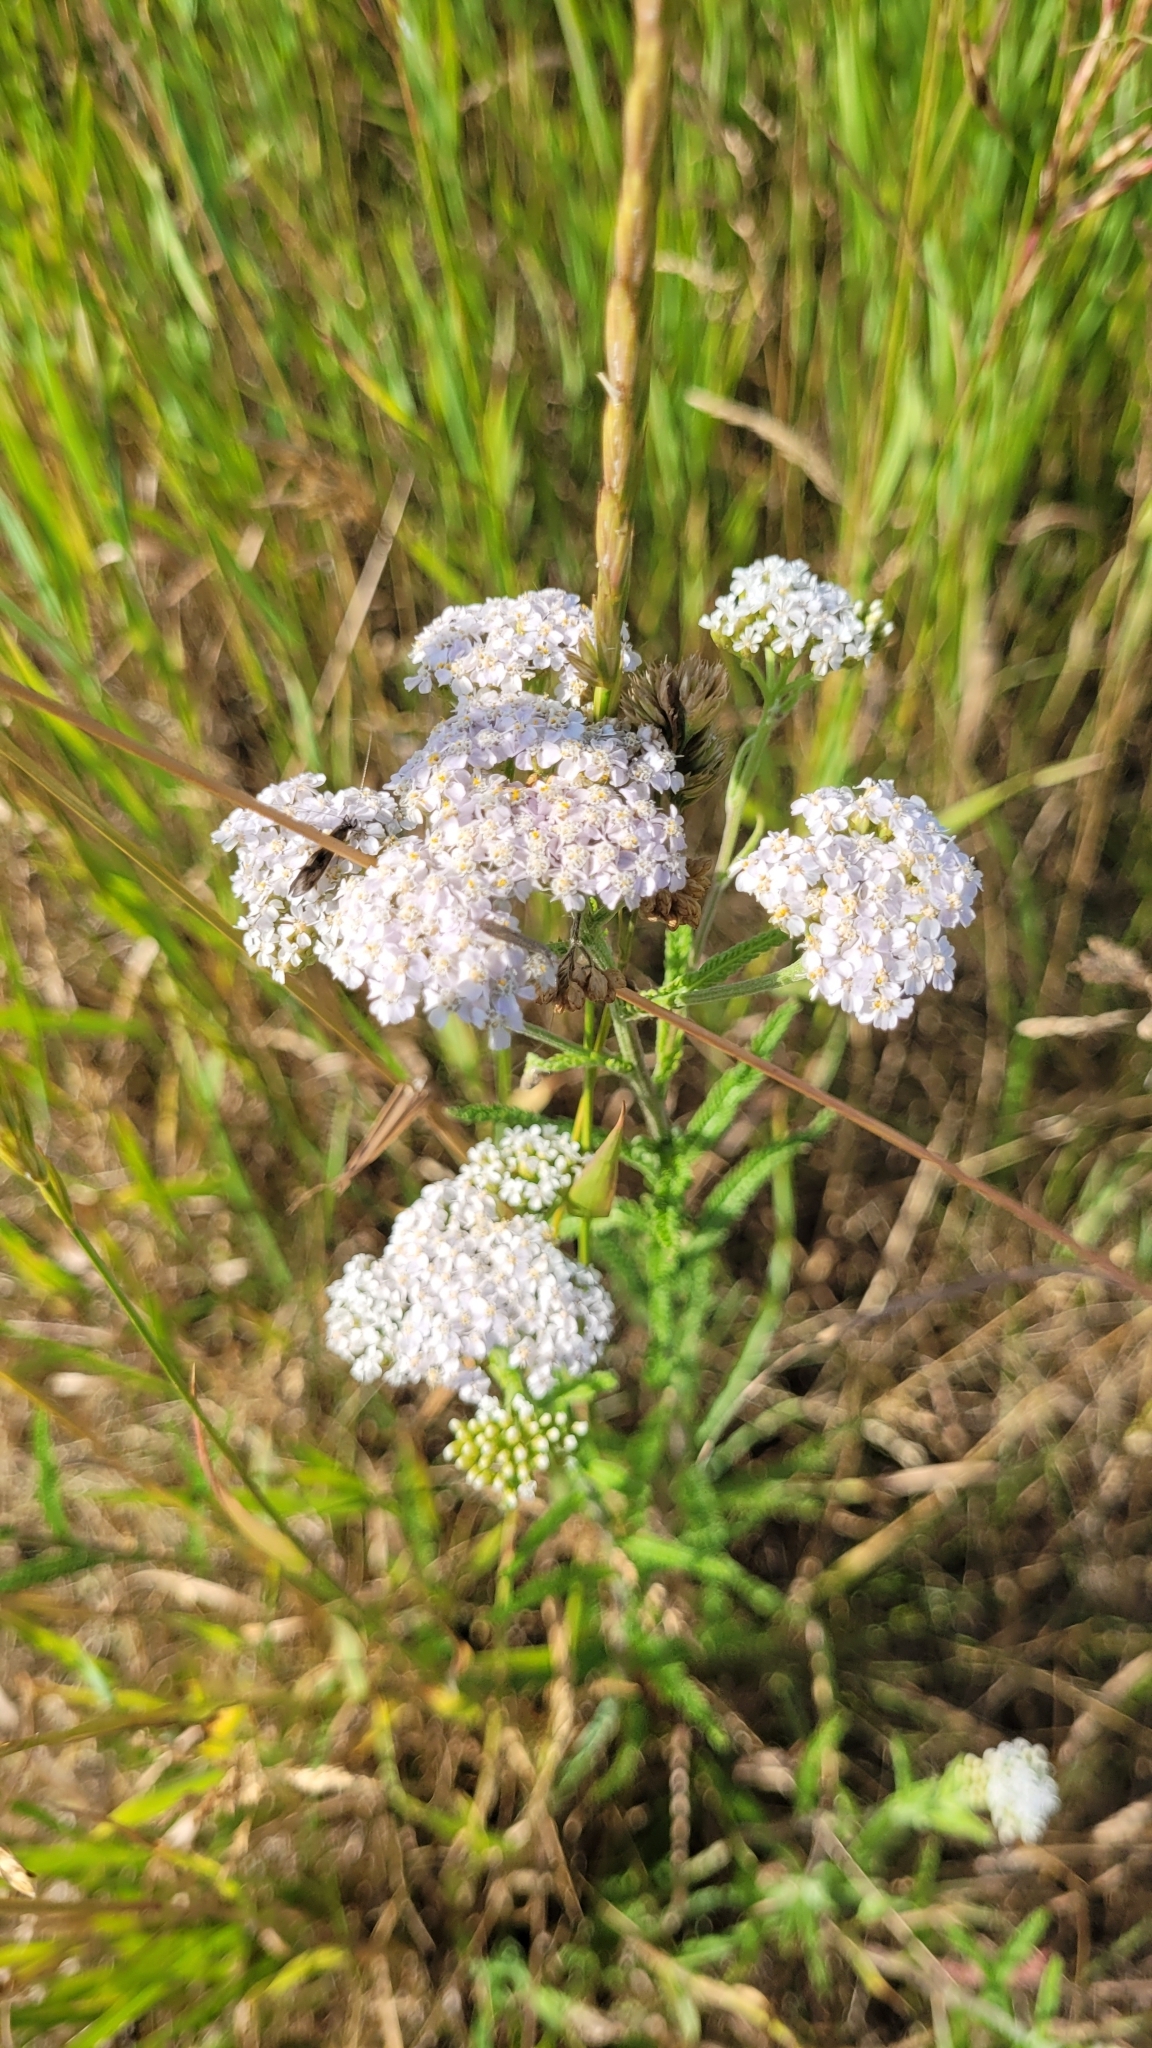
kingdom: Plantae
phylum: Tracheophyta
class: Magnoliopsida
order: Asterales
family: Asteraceae
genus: Achillea
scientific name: Achillea millefolium
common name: Yarrow
